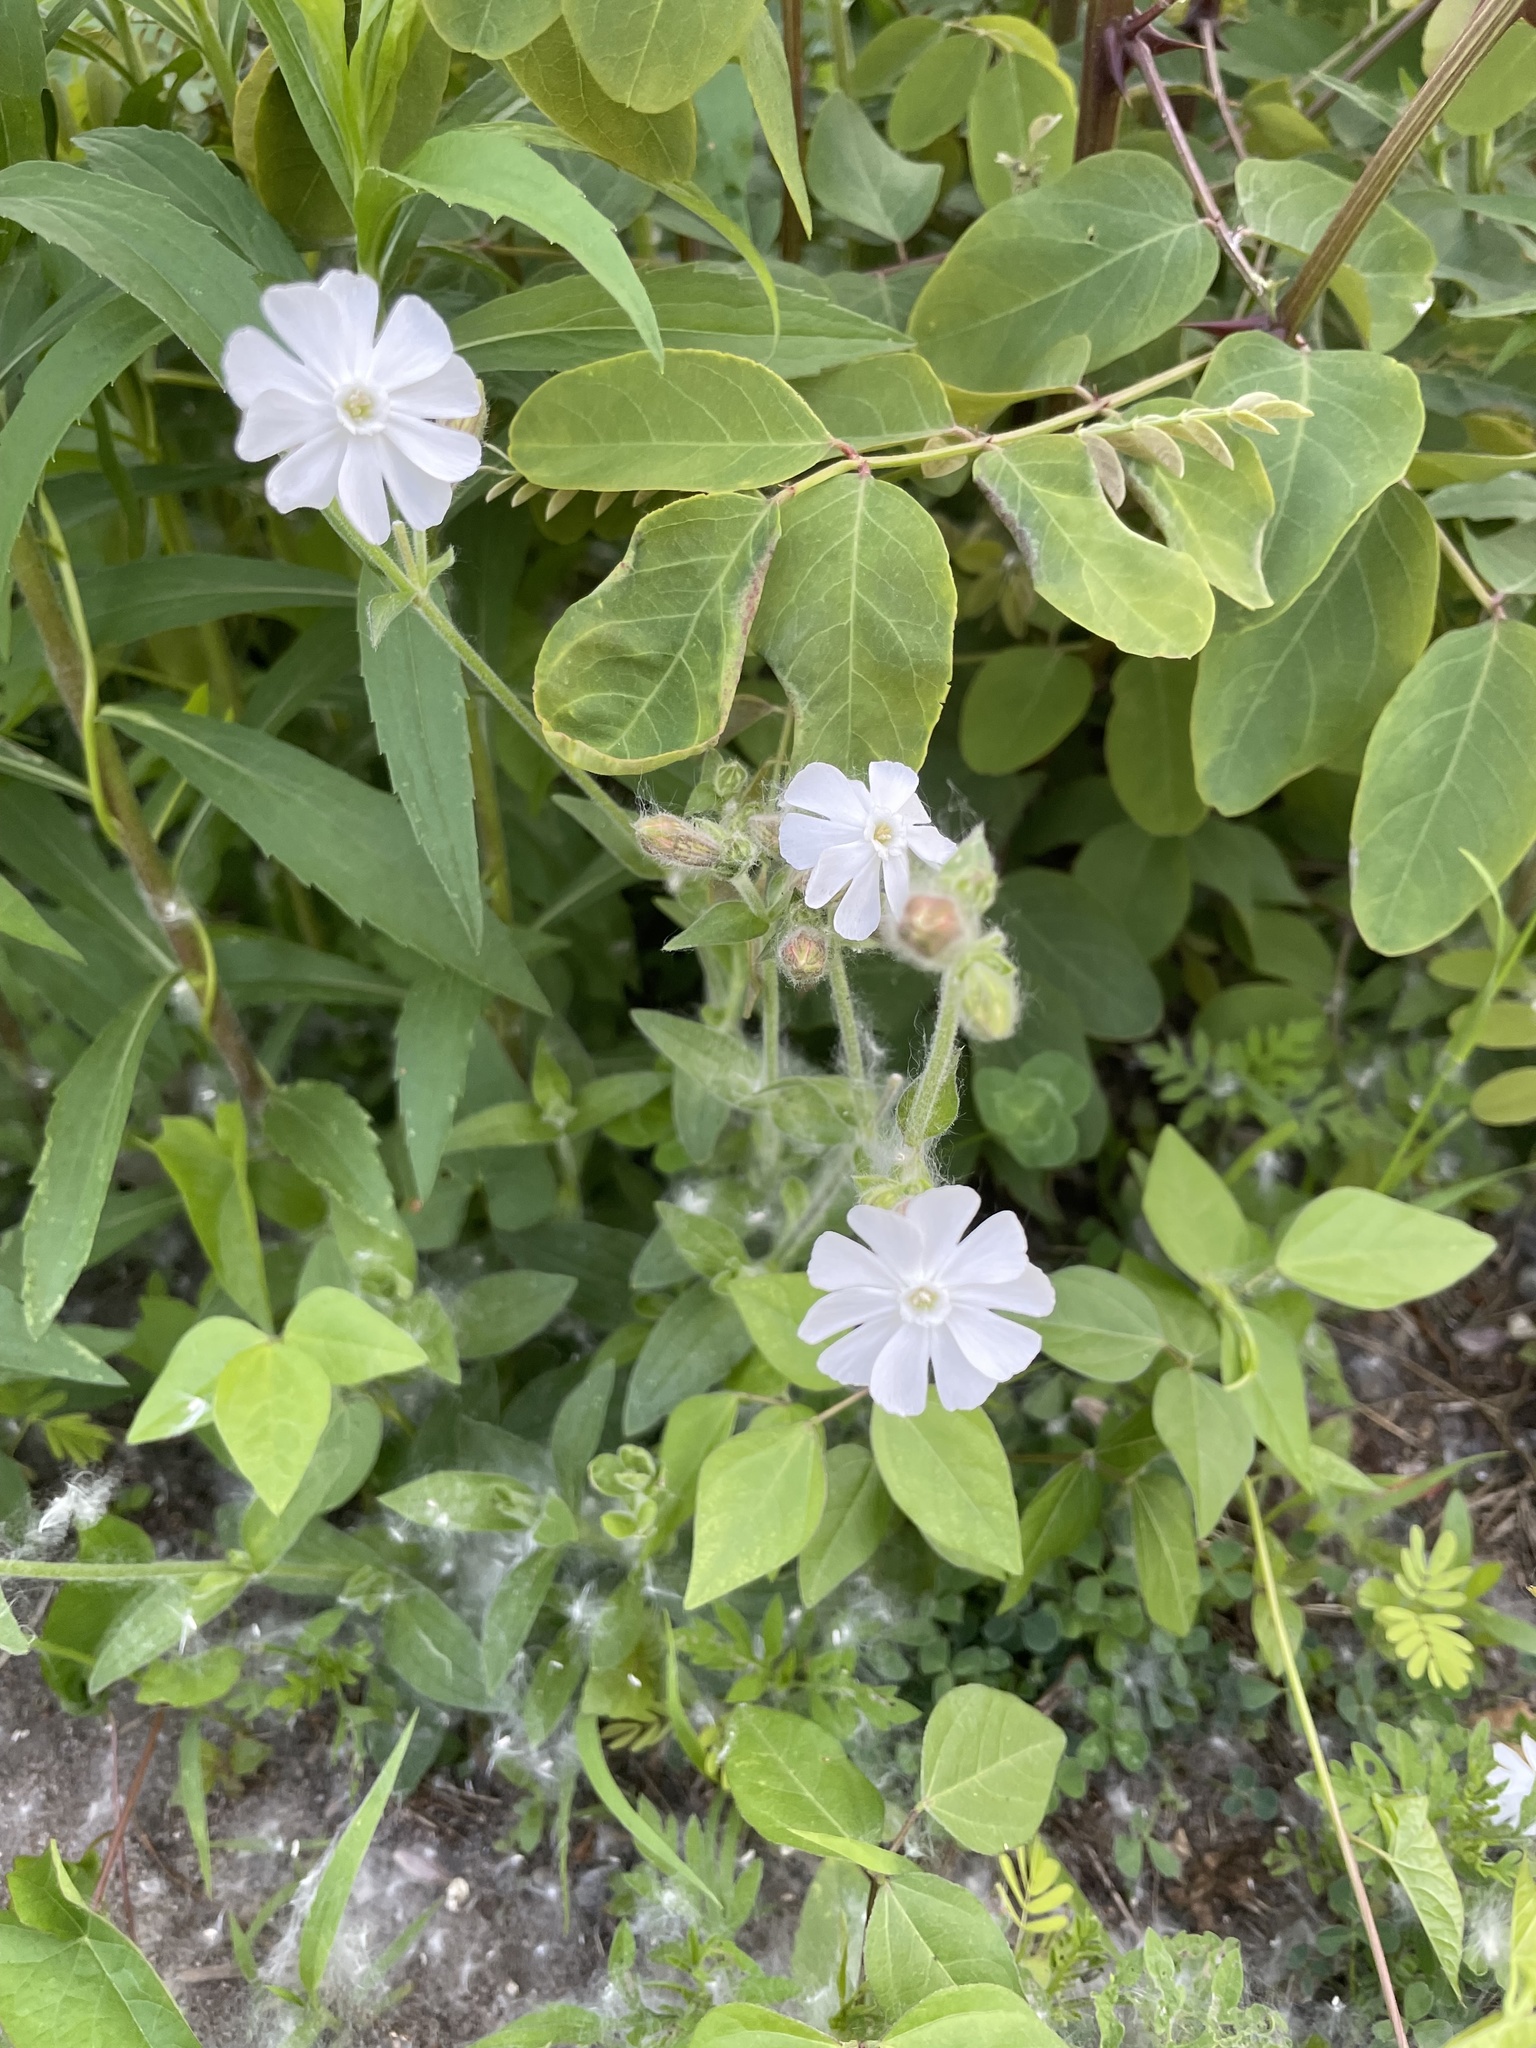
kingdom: Plantae
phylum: Tracheophyta
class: Magnoliopsida
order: Caryophyllales
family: Caryophyllaceae
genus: Silene
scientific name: Silene latifolia
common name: White campion
